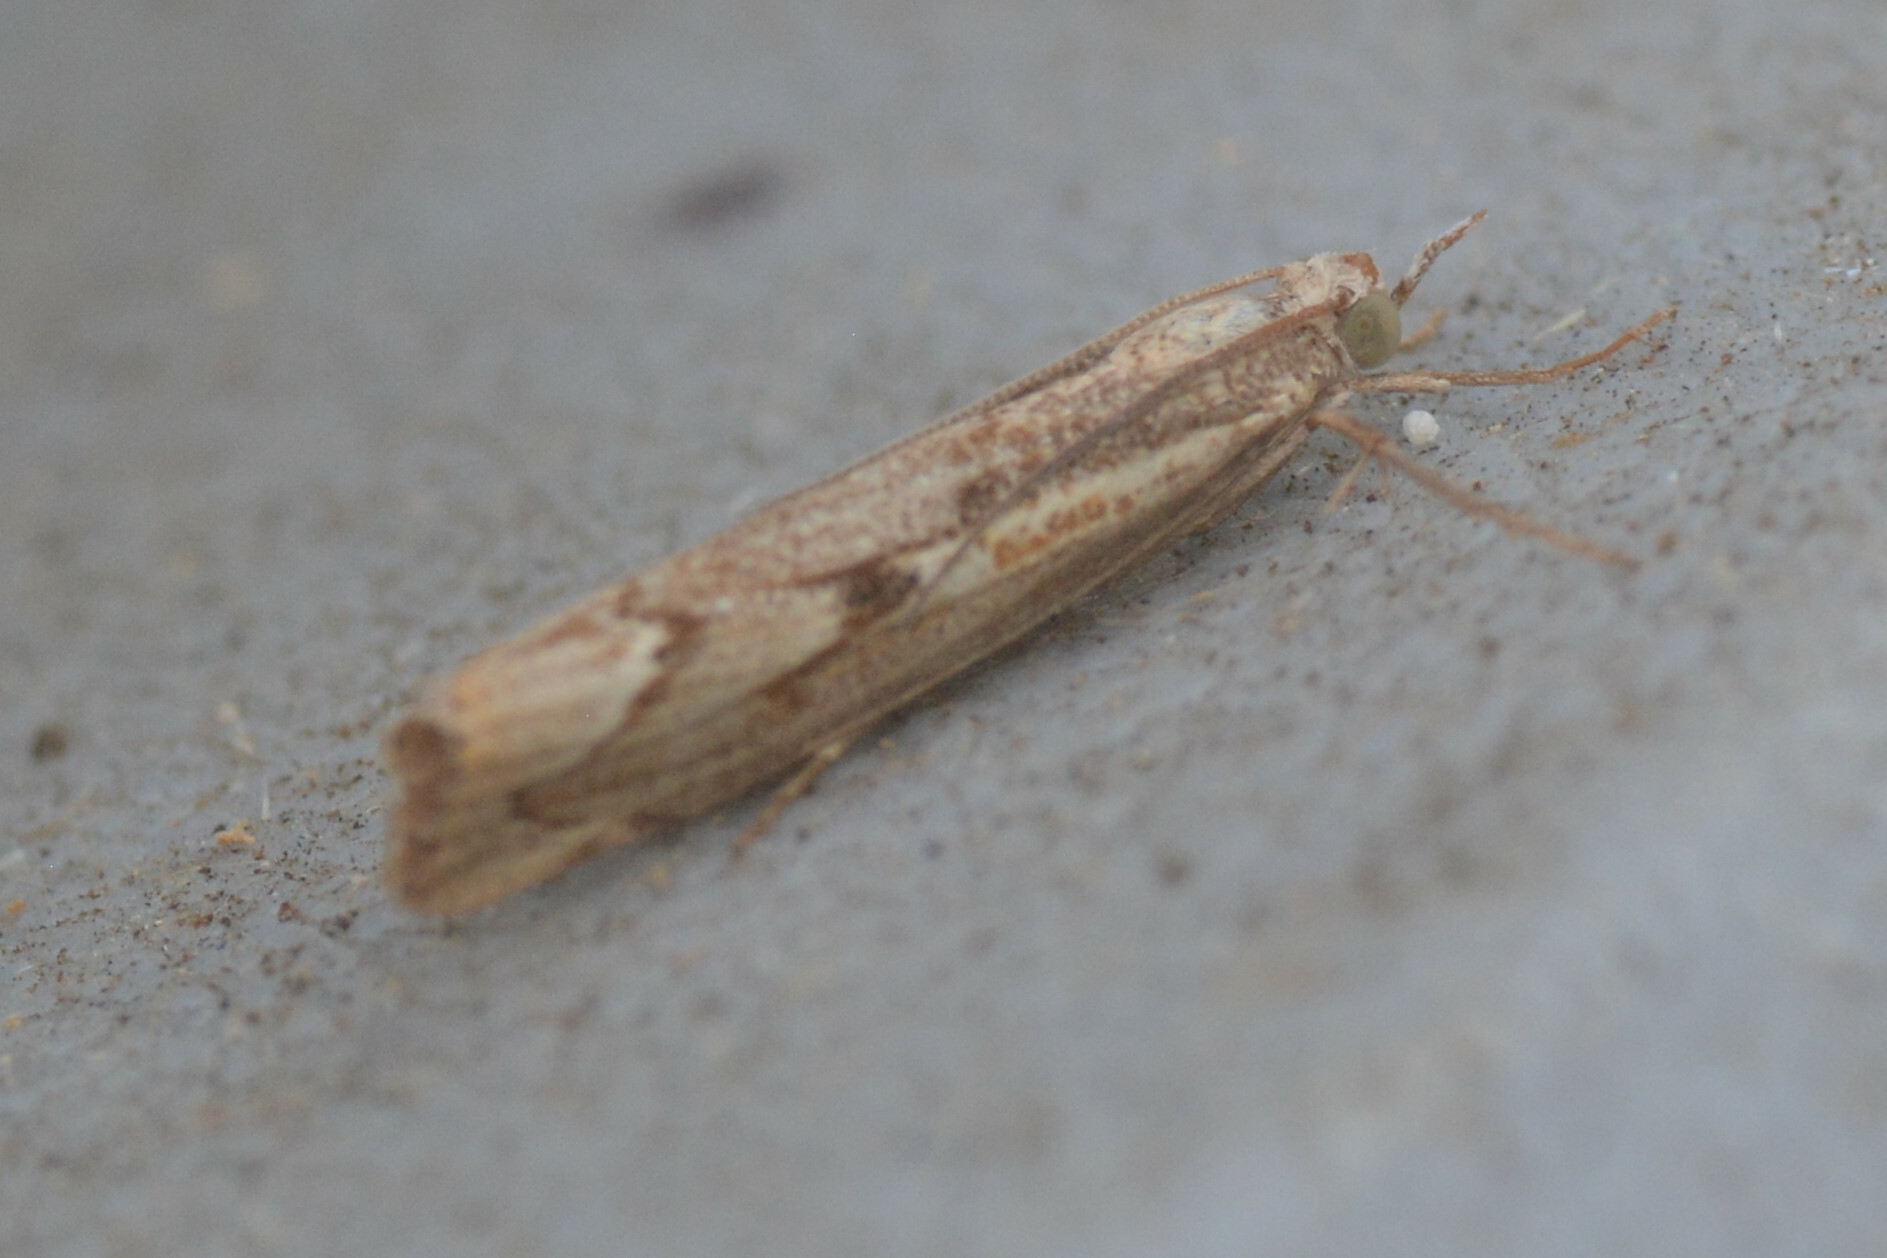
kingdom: Animalia
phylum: Arthropoda
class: Insecta
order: Lepidoptera
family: Crambidae
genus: Agriphila
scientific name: Agriphila geniculea
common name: Elbow-stripe grass-veneer
